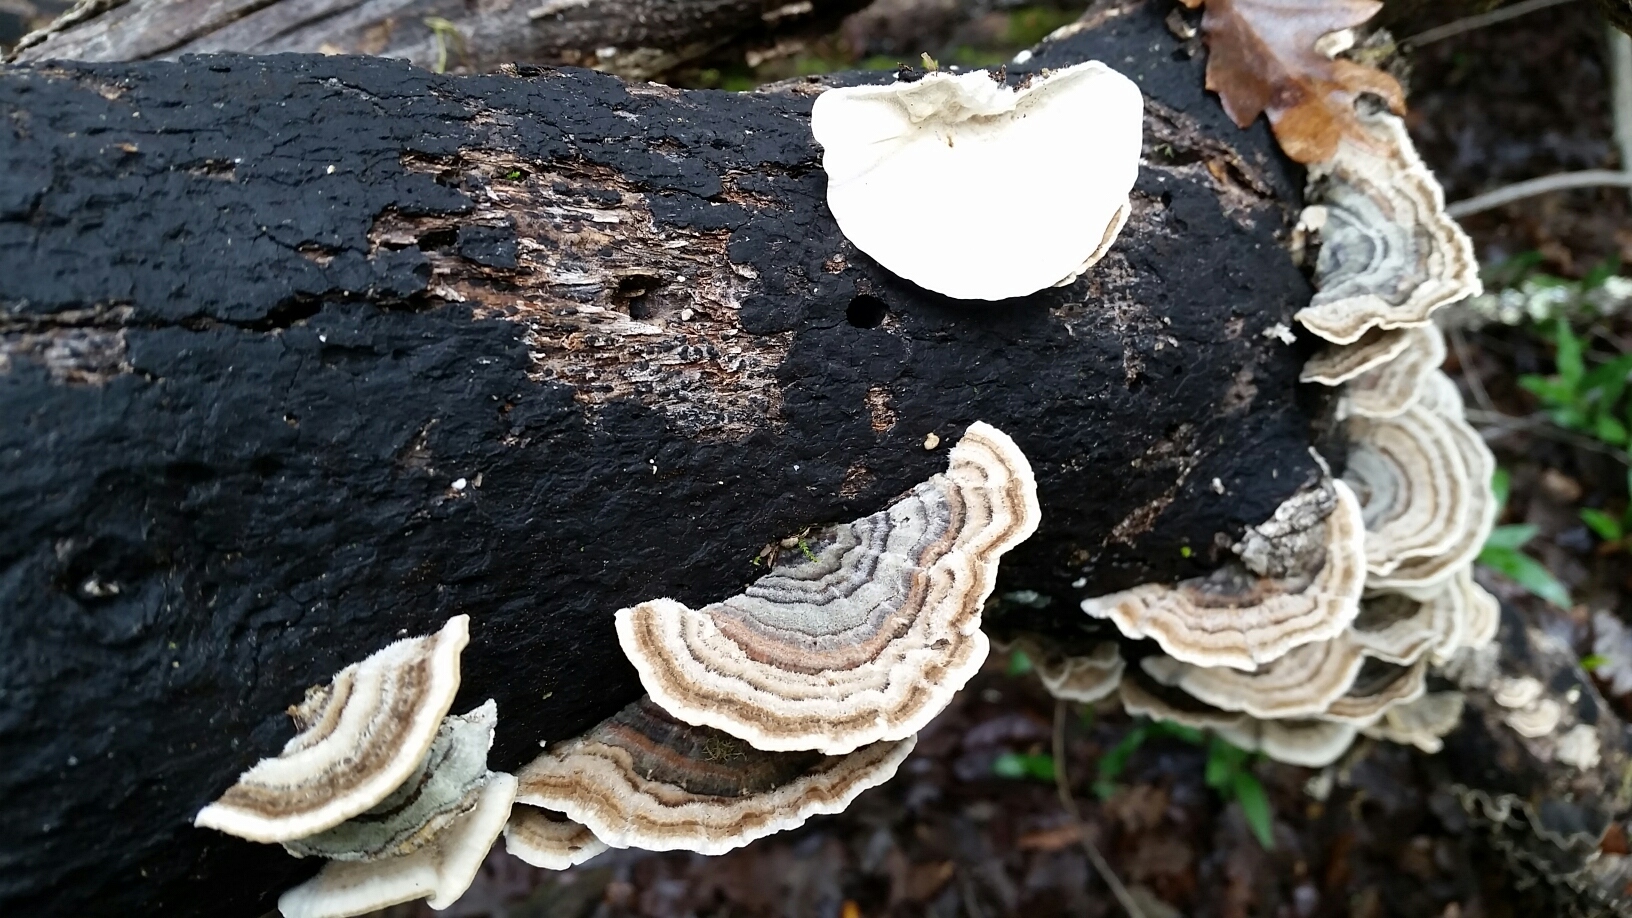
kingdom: Fungi
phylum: Basidiomycota
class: Agaricomycetes
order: Polyporales
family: Polyporaceae
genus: Trametes
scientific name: Trametes versicolor
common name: Turkeytail
